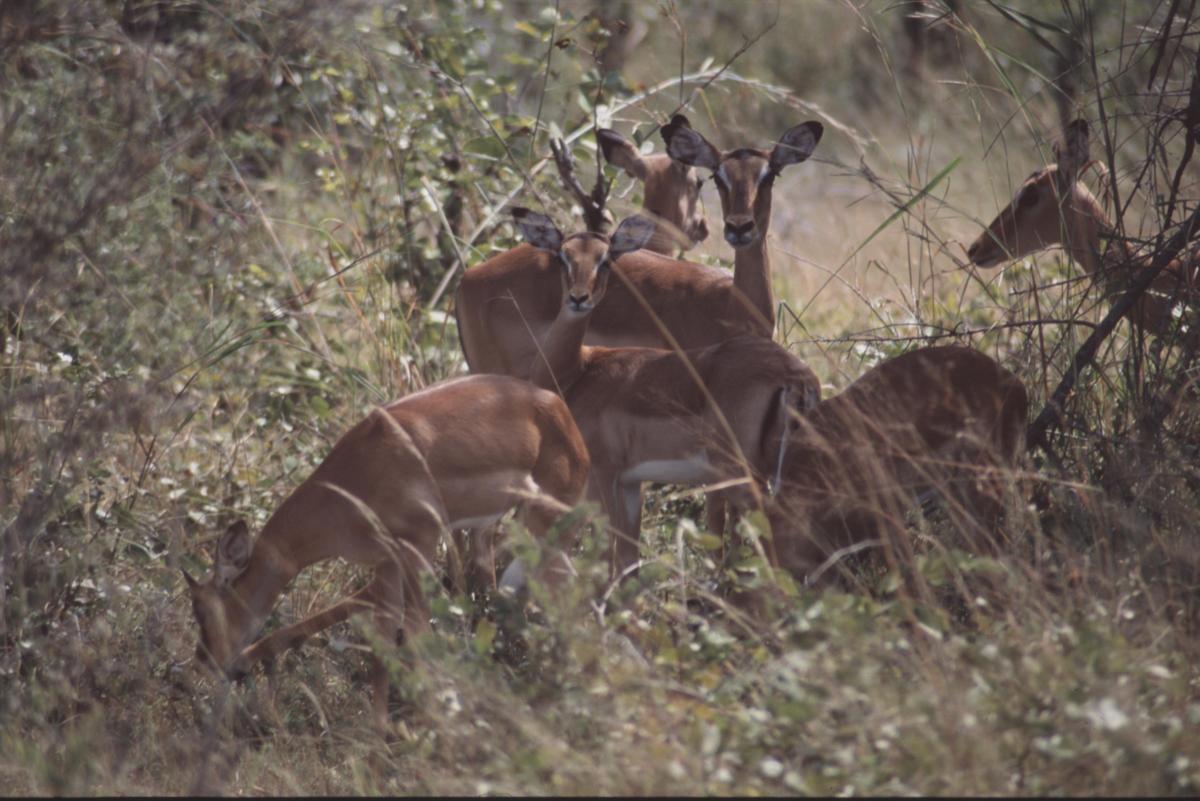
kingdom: Animalia
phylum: Chordata
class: Mammalia
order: Artiodactyla
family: Bovidae
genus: Aepyceros
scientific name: Aepyceros melampus
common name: Impala
